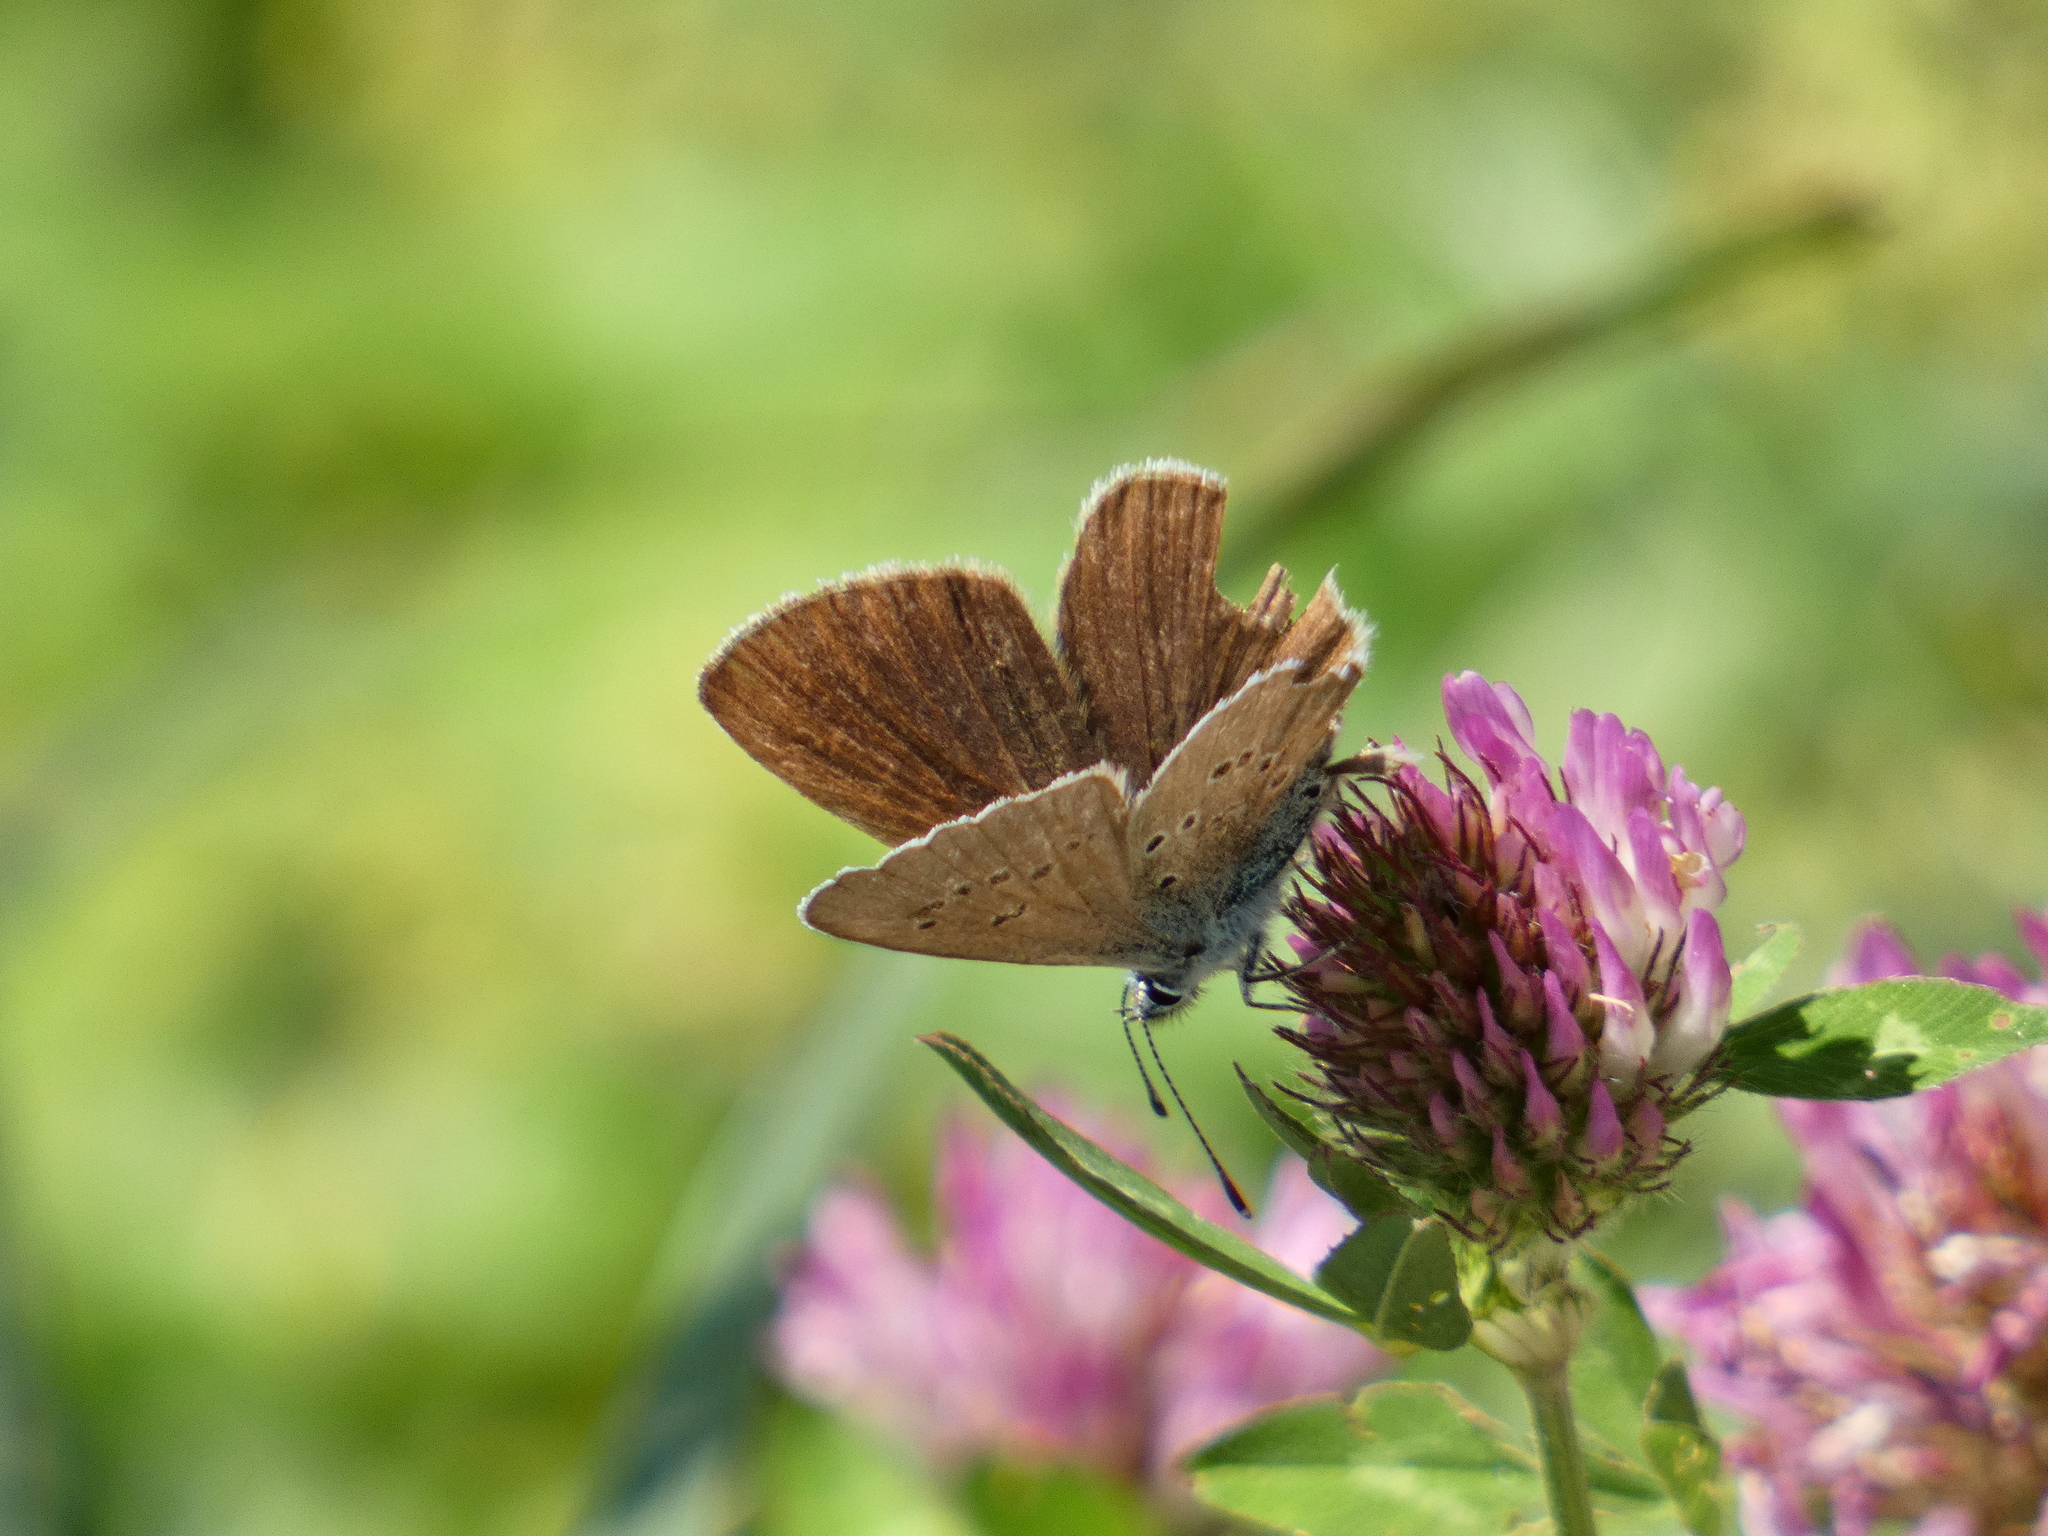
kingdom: Animalia
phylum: Arthropoda
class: Insecta
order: Lepidoptera
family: Lycaenidae
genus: Cyaniris
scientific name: Cyaniris semiargus
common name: Mazarine blue
